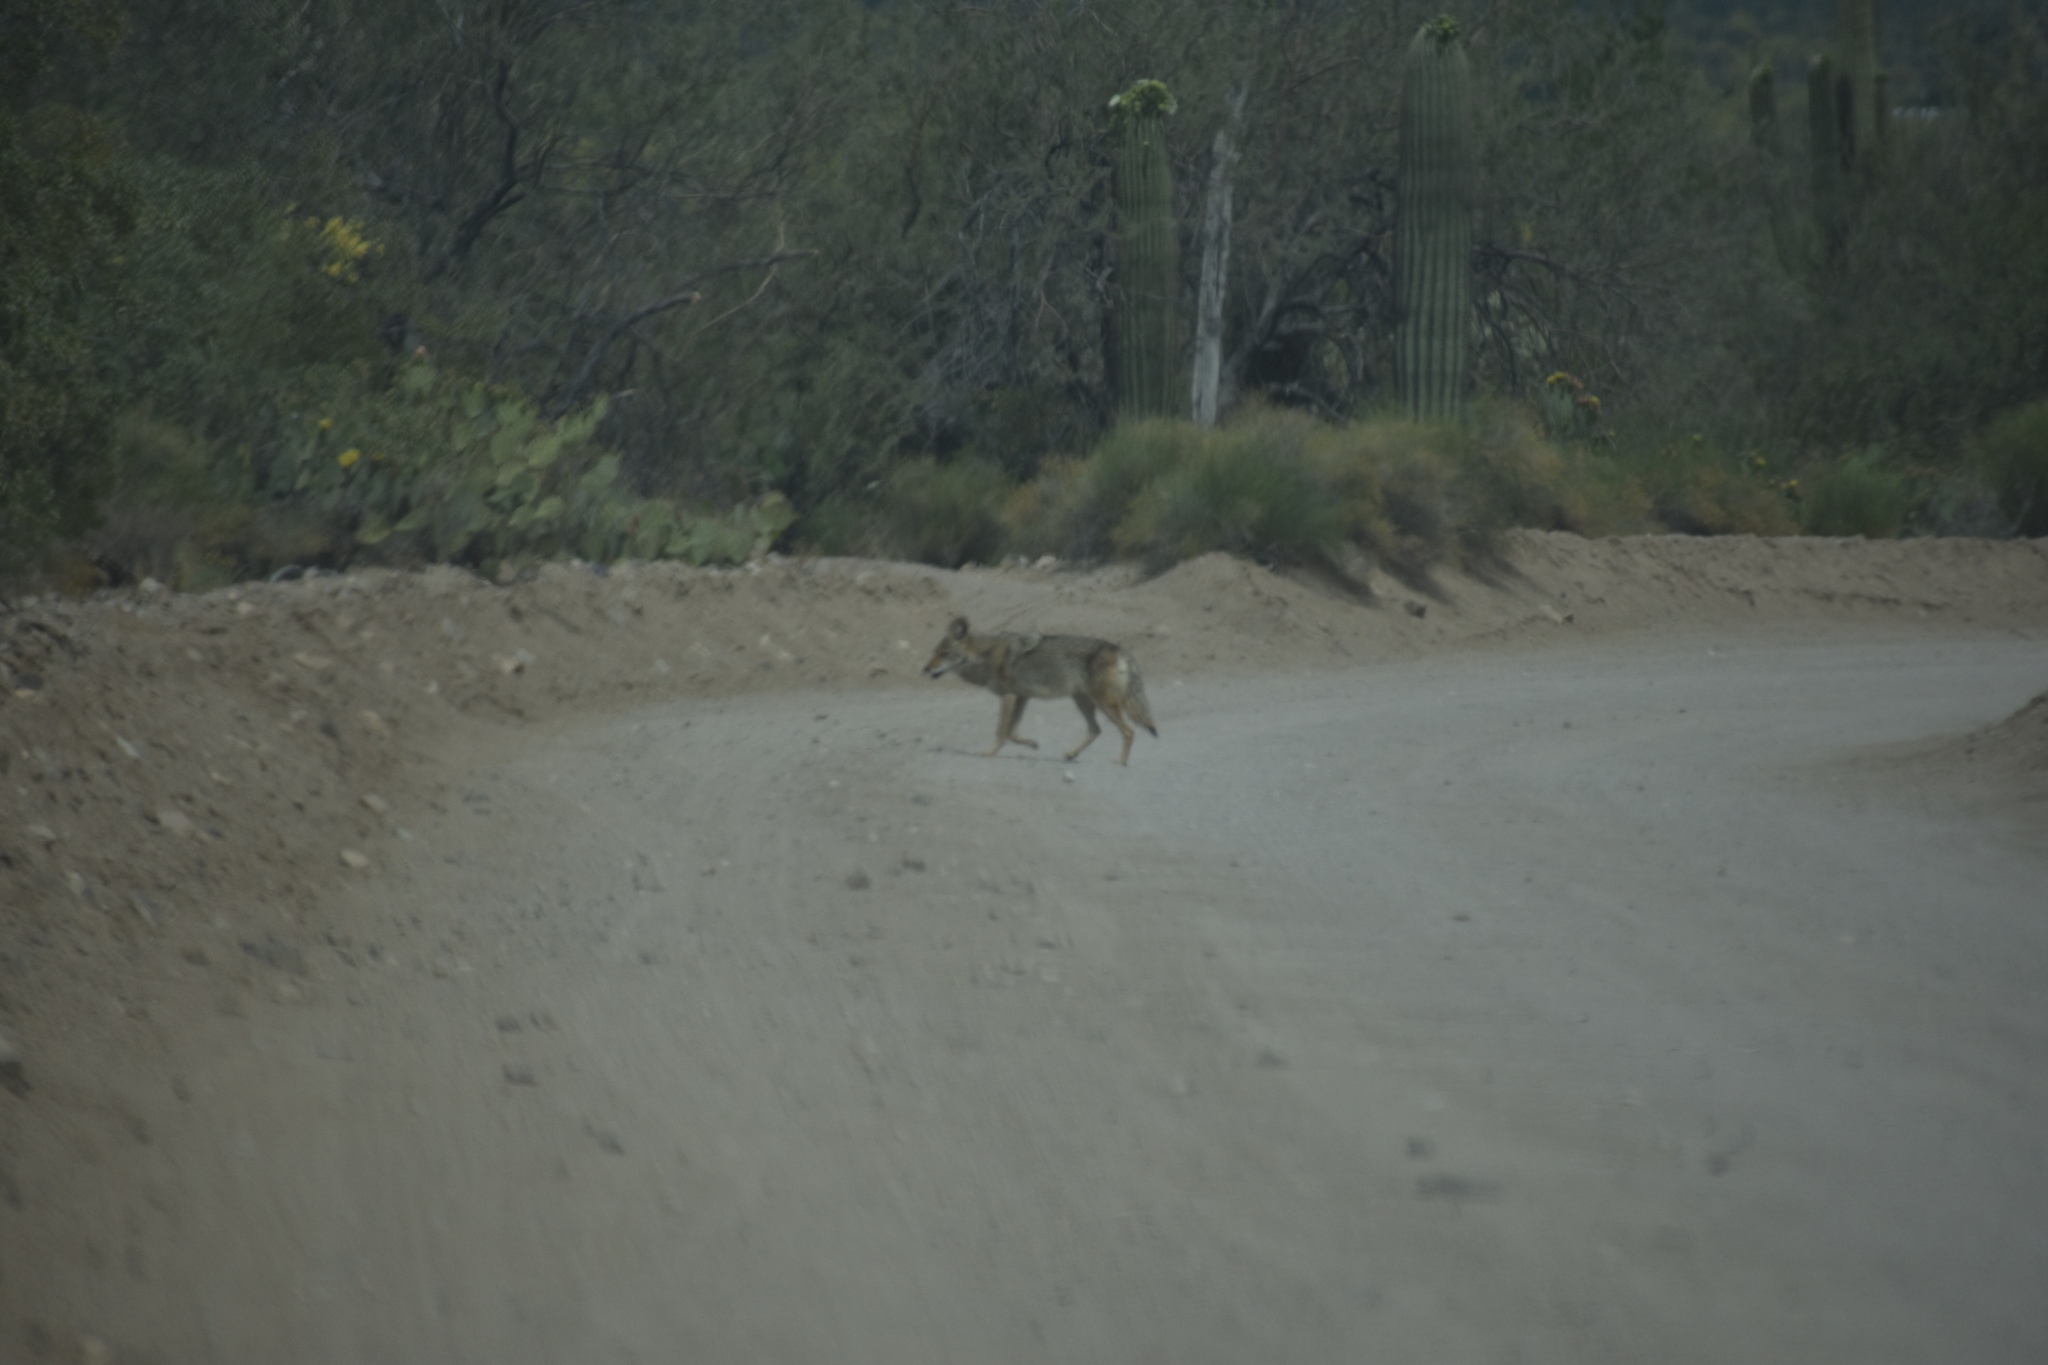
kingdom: Animalia
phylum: Chordata
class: Mammalia
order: Carnivora
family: Canidae
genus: Canis
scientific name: Canis latrans
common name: Coyote
